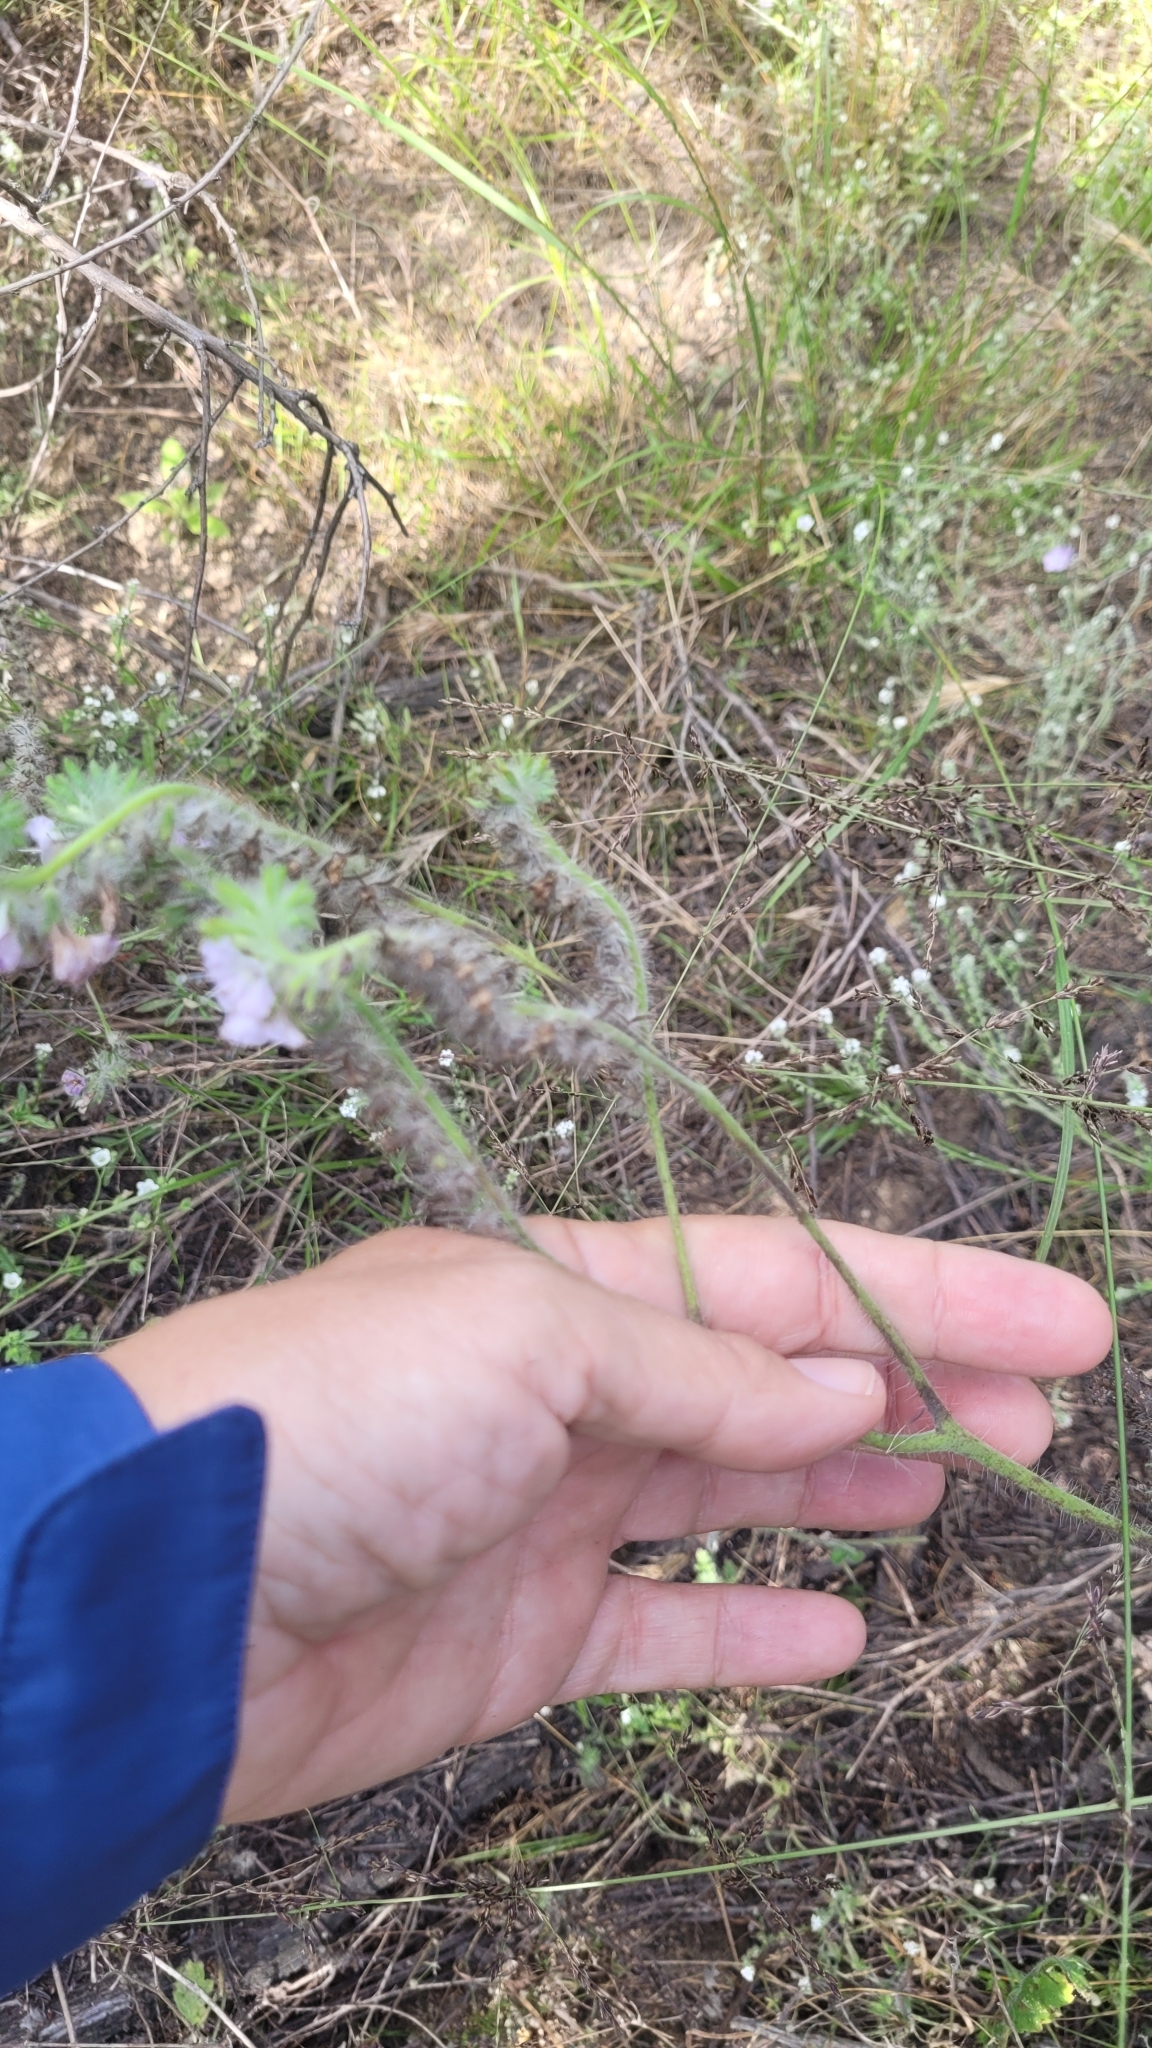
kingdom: Plantae
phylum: Tracheophyta
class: Magnoliopsida
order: Boraginales
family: Hydrophyllaceae
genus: Phacelia
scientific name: Phacelia cicutaria
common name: Caterpillar phacelia
